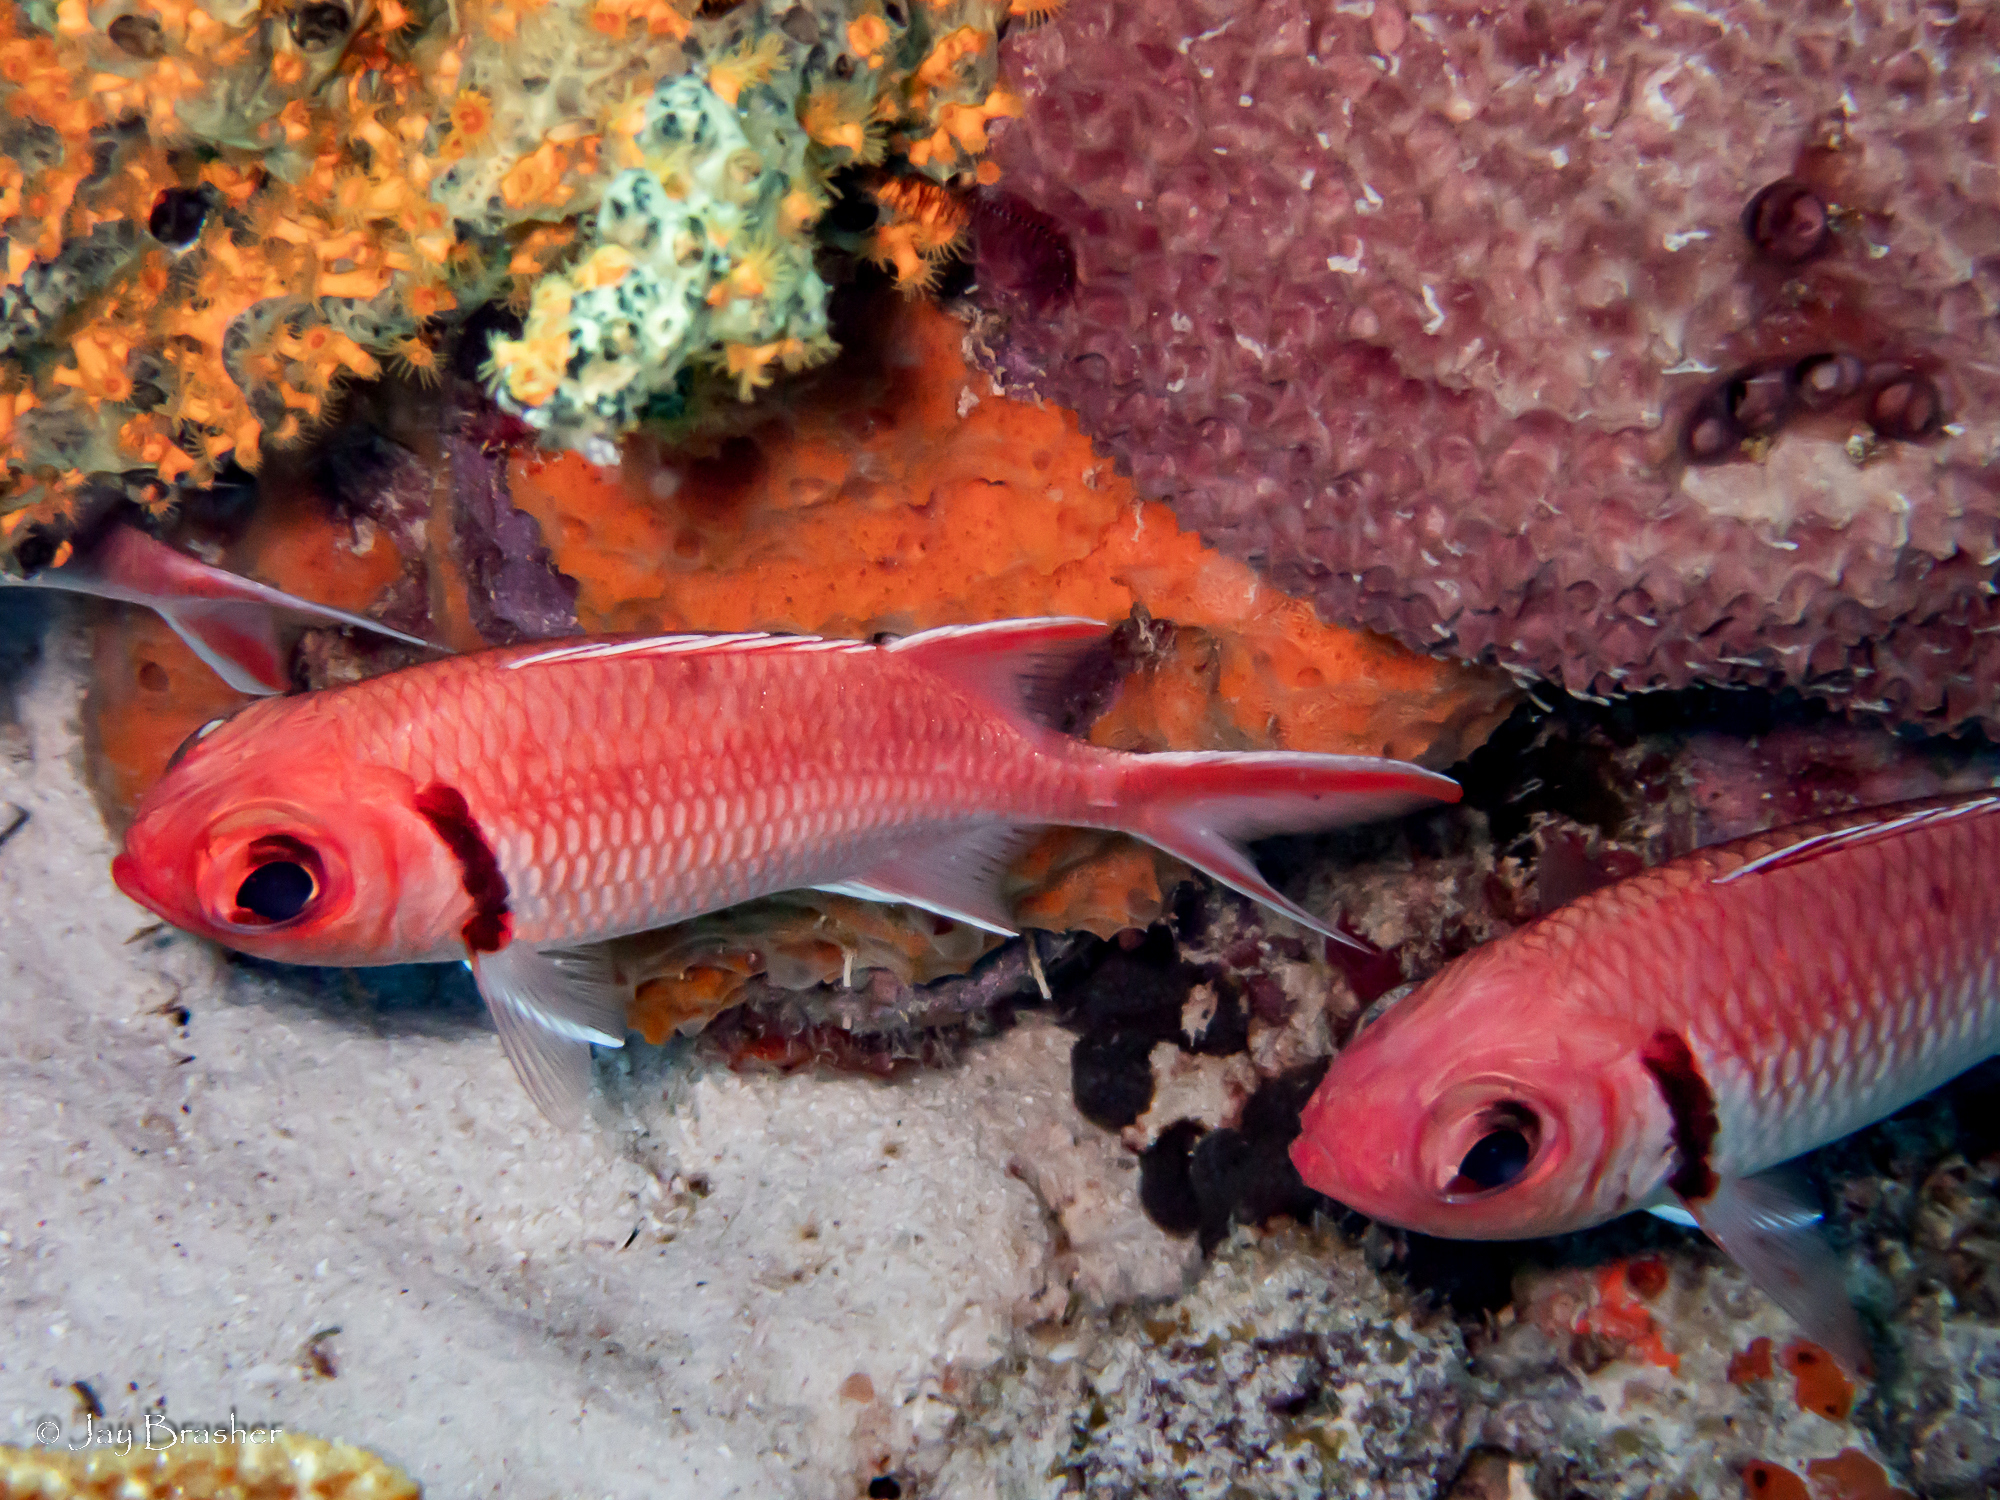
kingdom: Animalia
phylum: Porifera
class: Demospongiae
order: Scopalinida
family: Scopalinidae
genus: Scopalina
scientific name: Scopalina ruetzleri
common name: Orange lumpy encrusting sponge
